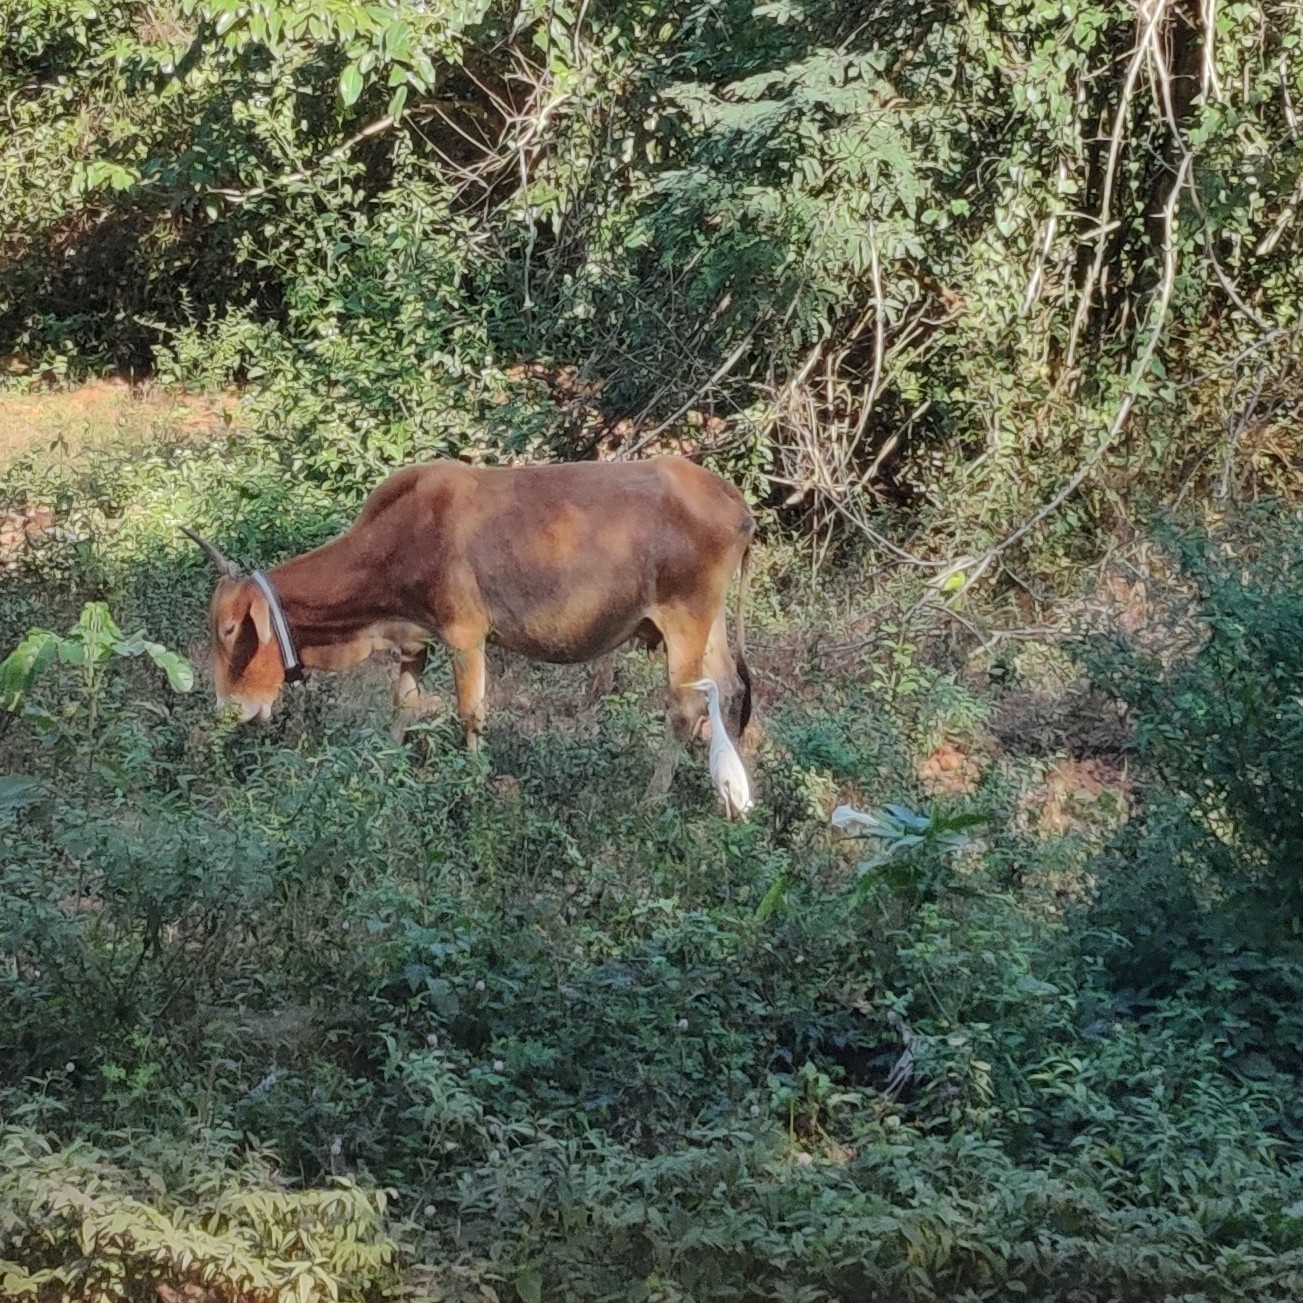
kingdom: Animalia
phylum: Chordata
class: Aves
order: Pelecaniformes
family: Ardeidae
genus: Bubulcus
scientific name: Bubulcus coromandus
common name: Eastern cattle egret
